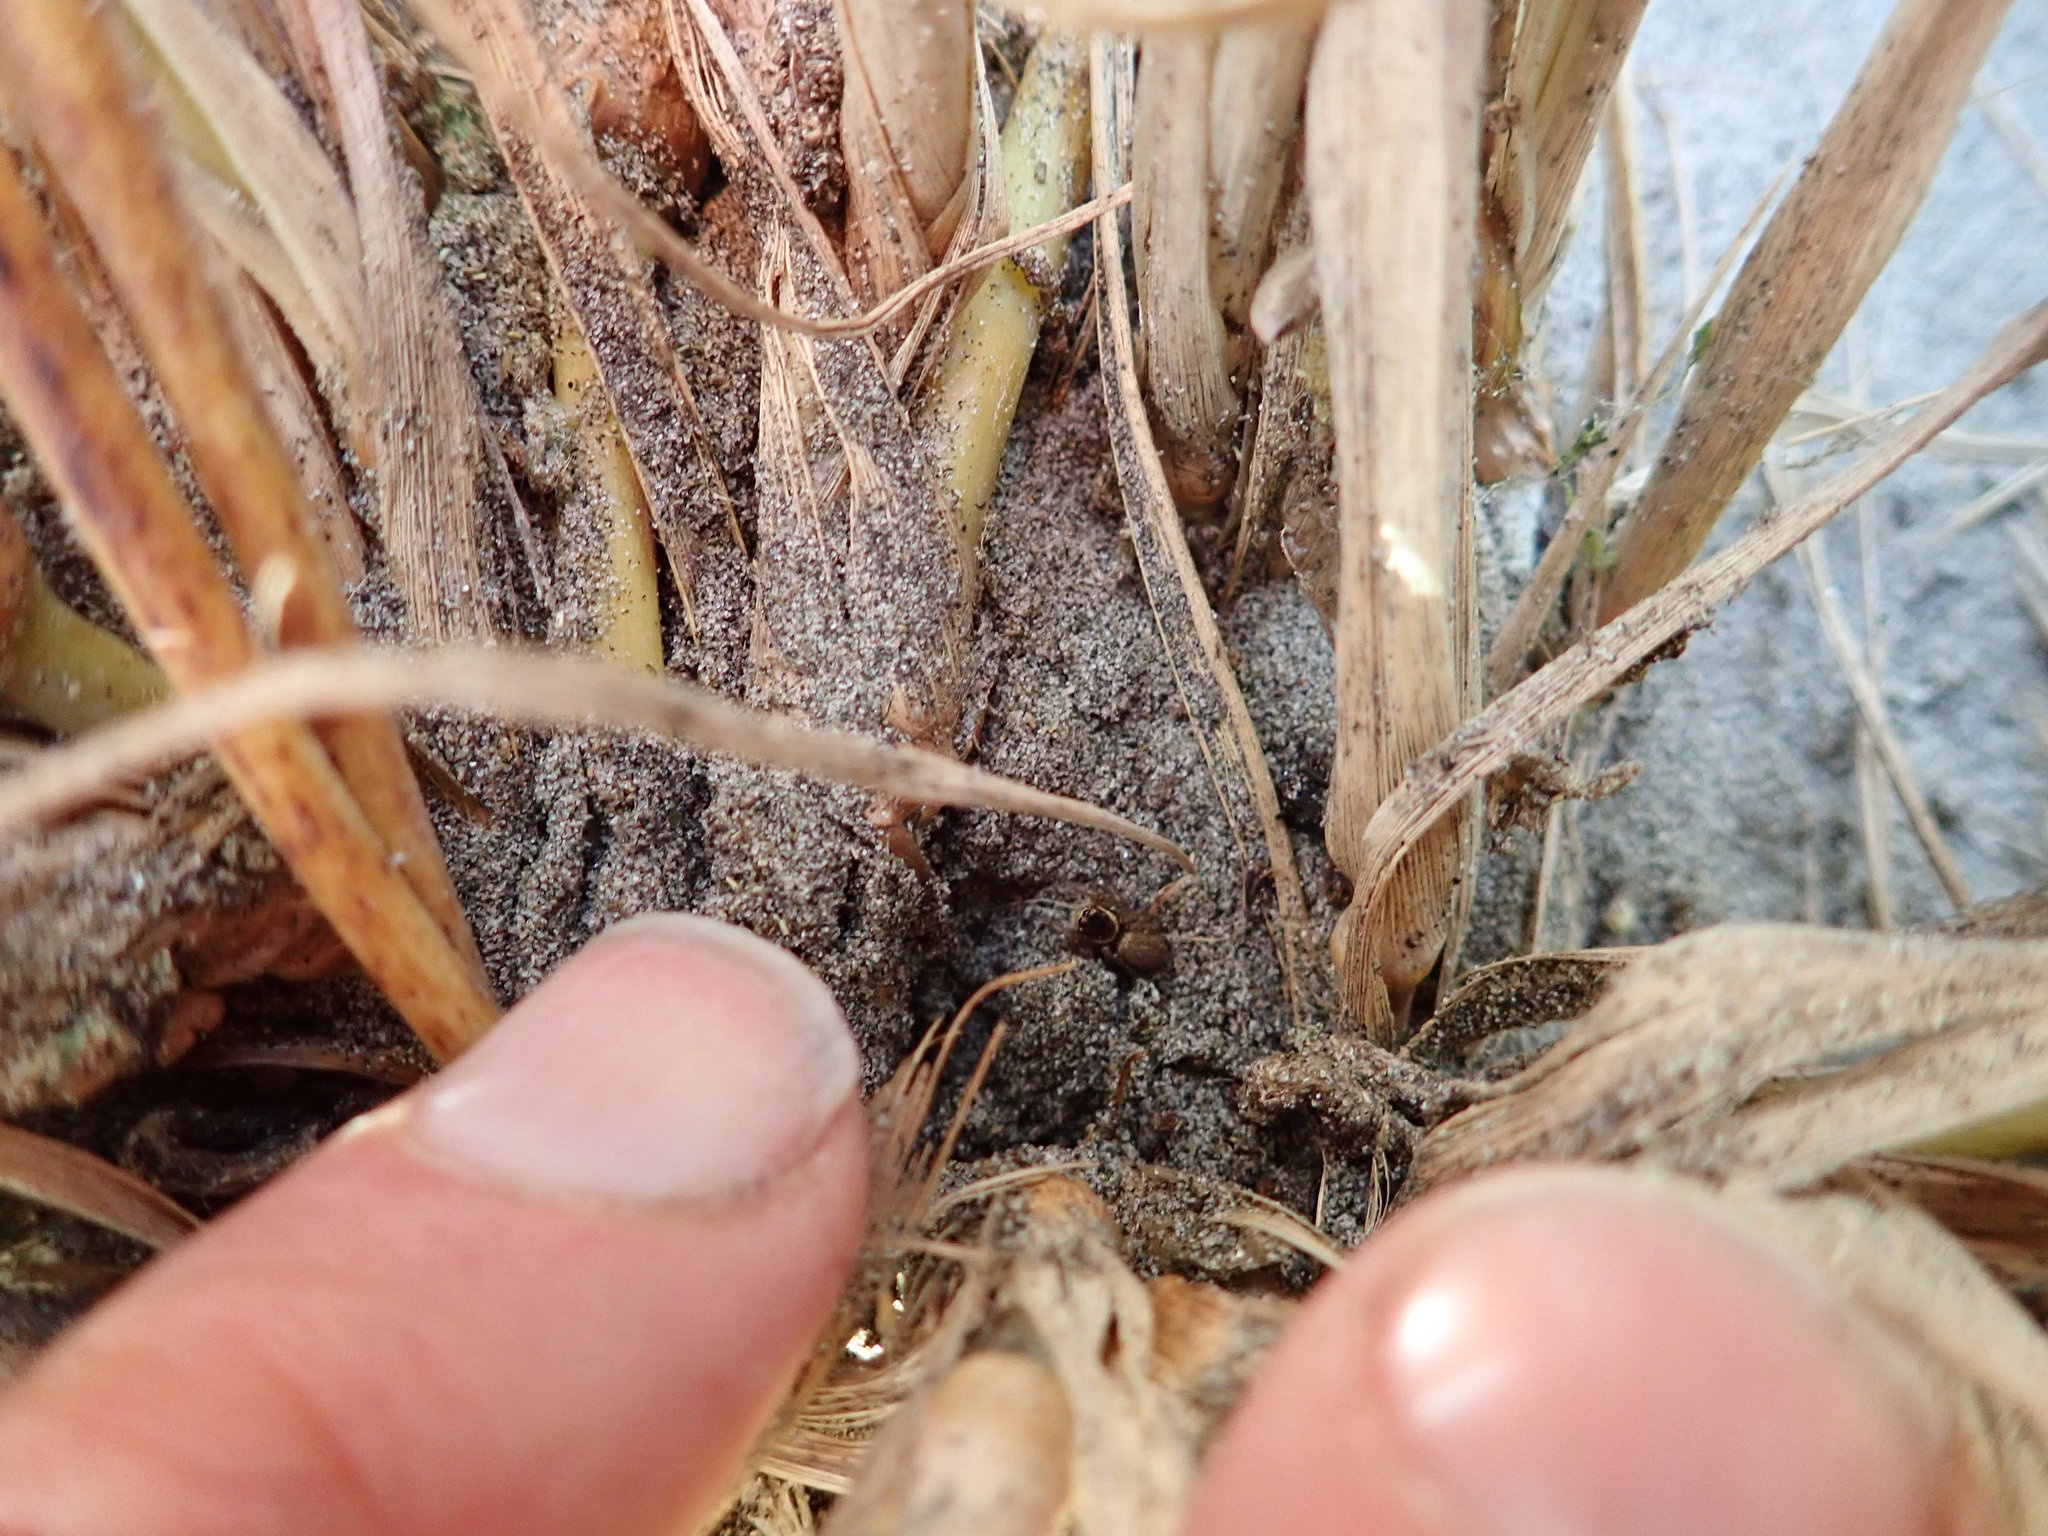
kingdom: Animalia
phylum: Arthropoda
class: Arachnida
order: Araneae
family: Salticidae
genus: Maratus
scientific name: Maratus griseus
